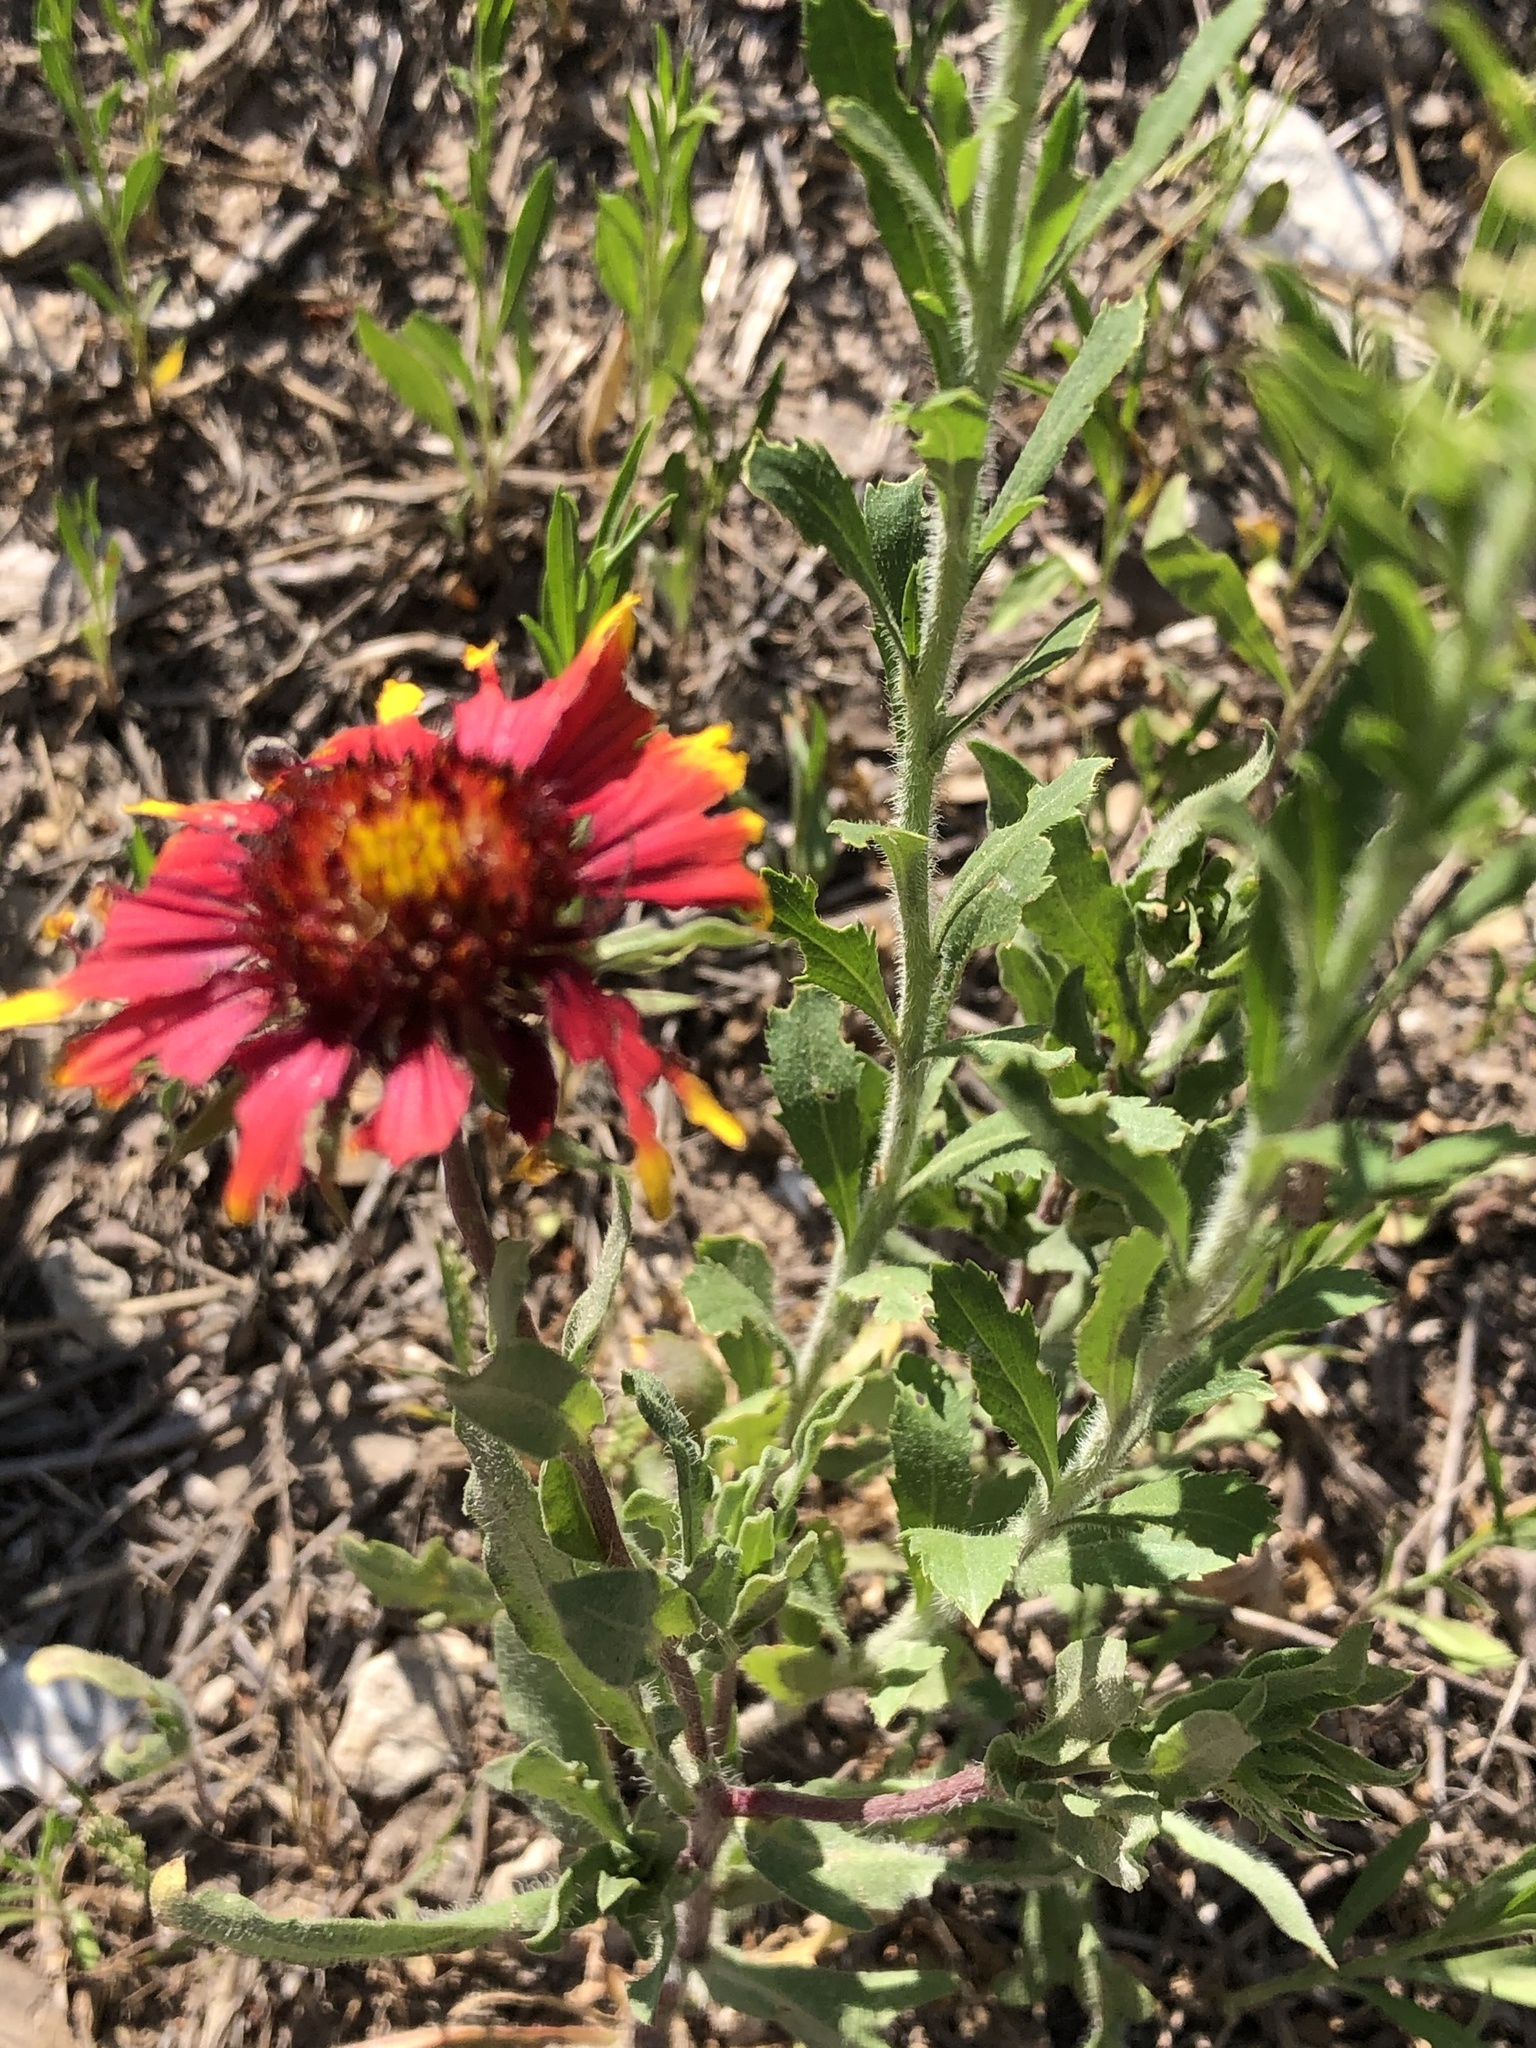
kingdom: Plantae
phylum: Tracheophyta
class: Magnoliopsida
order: Asterales
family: Asteraceae
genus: Gaillardia
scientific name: Gaillardia pulchella
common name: Firewheel
